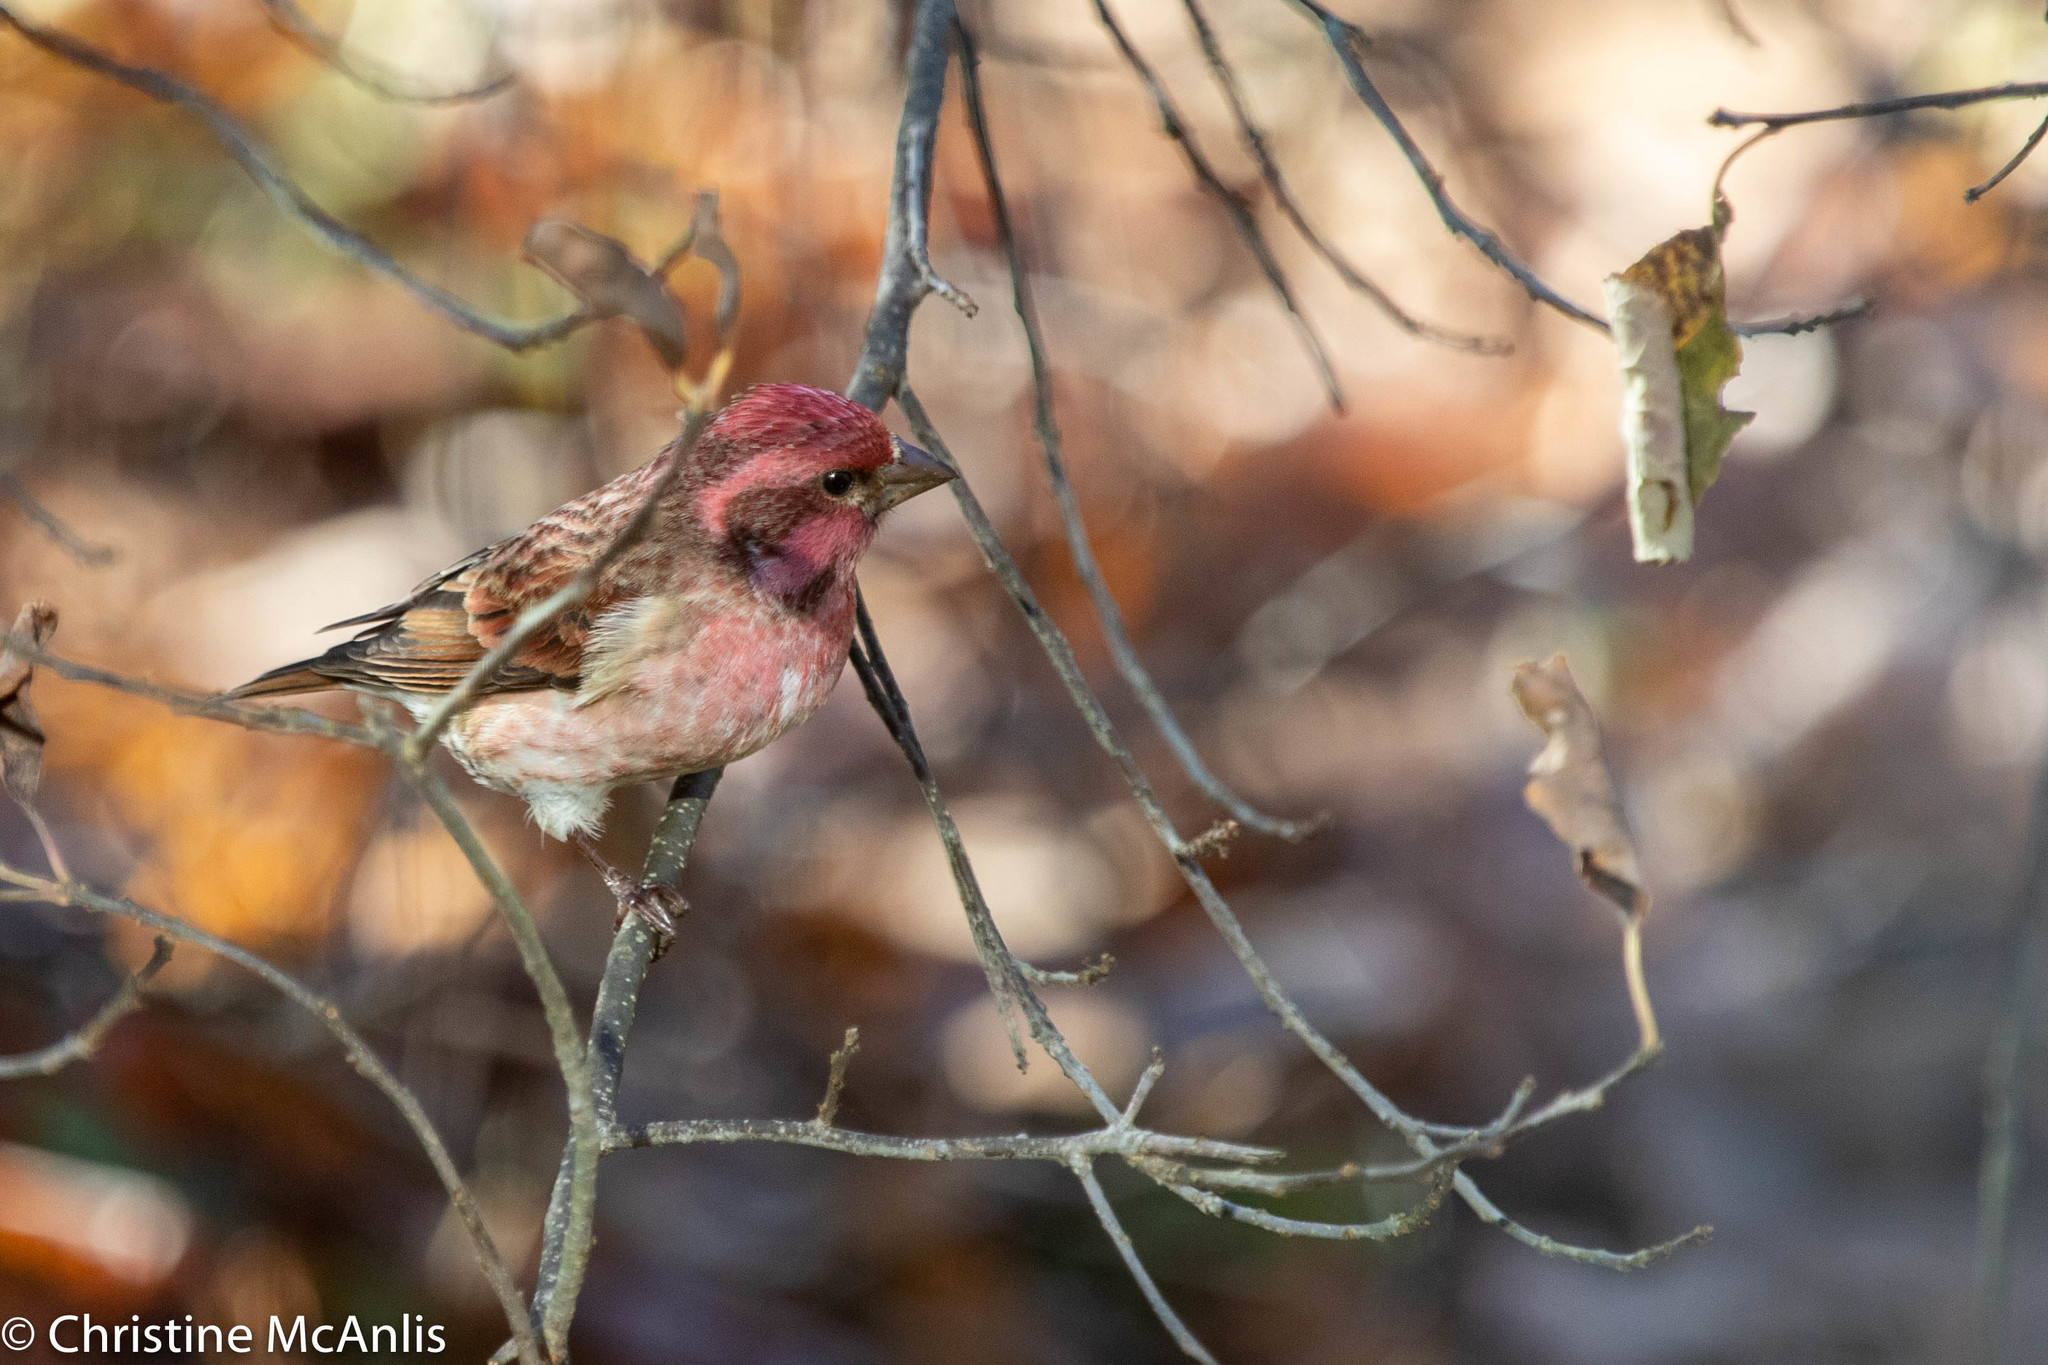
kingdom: Animalia
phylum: Chordata
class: Aves
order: Passeriformes
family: Fringillidae
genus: Haemorhous
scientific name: Haemorhous purpureus
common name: Purple finch
